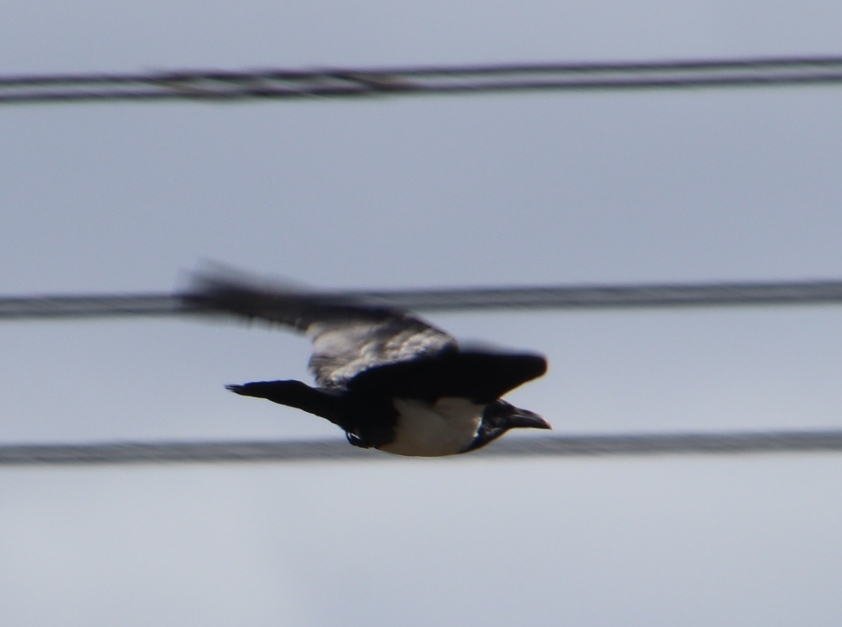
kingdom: Animalia
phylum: Chordata
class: Aves
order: Passeriformes
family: Corvidae
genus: Corvus
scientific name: Corvus albus
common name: Pied crow
